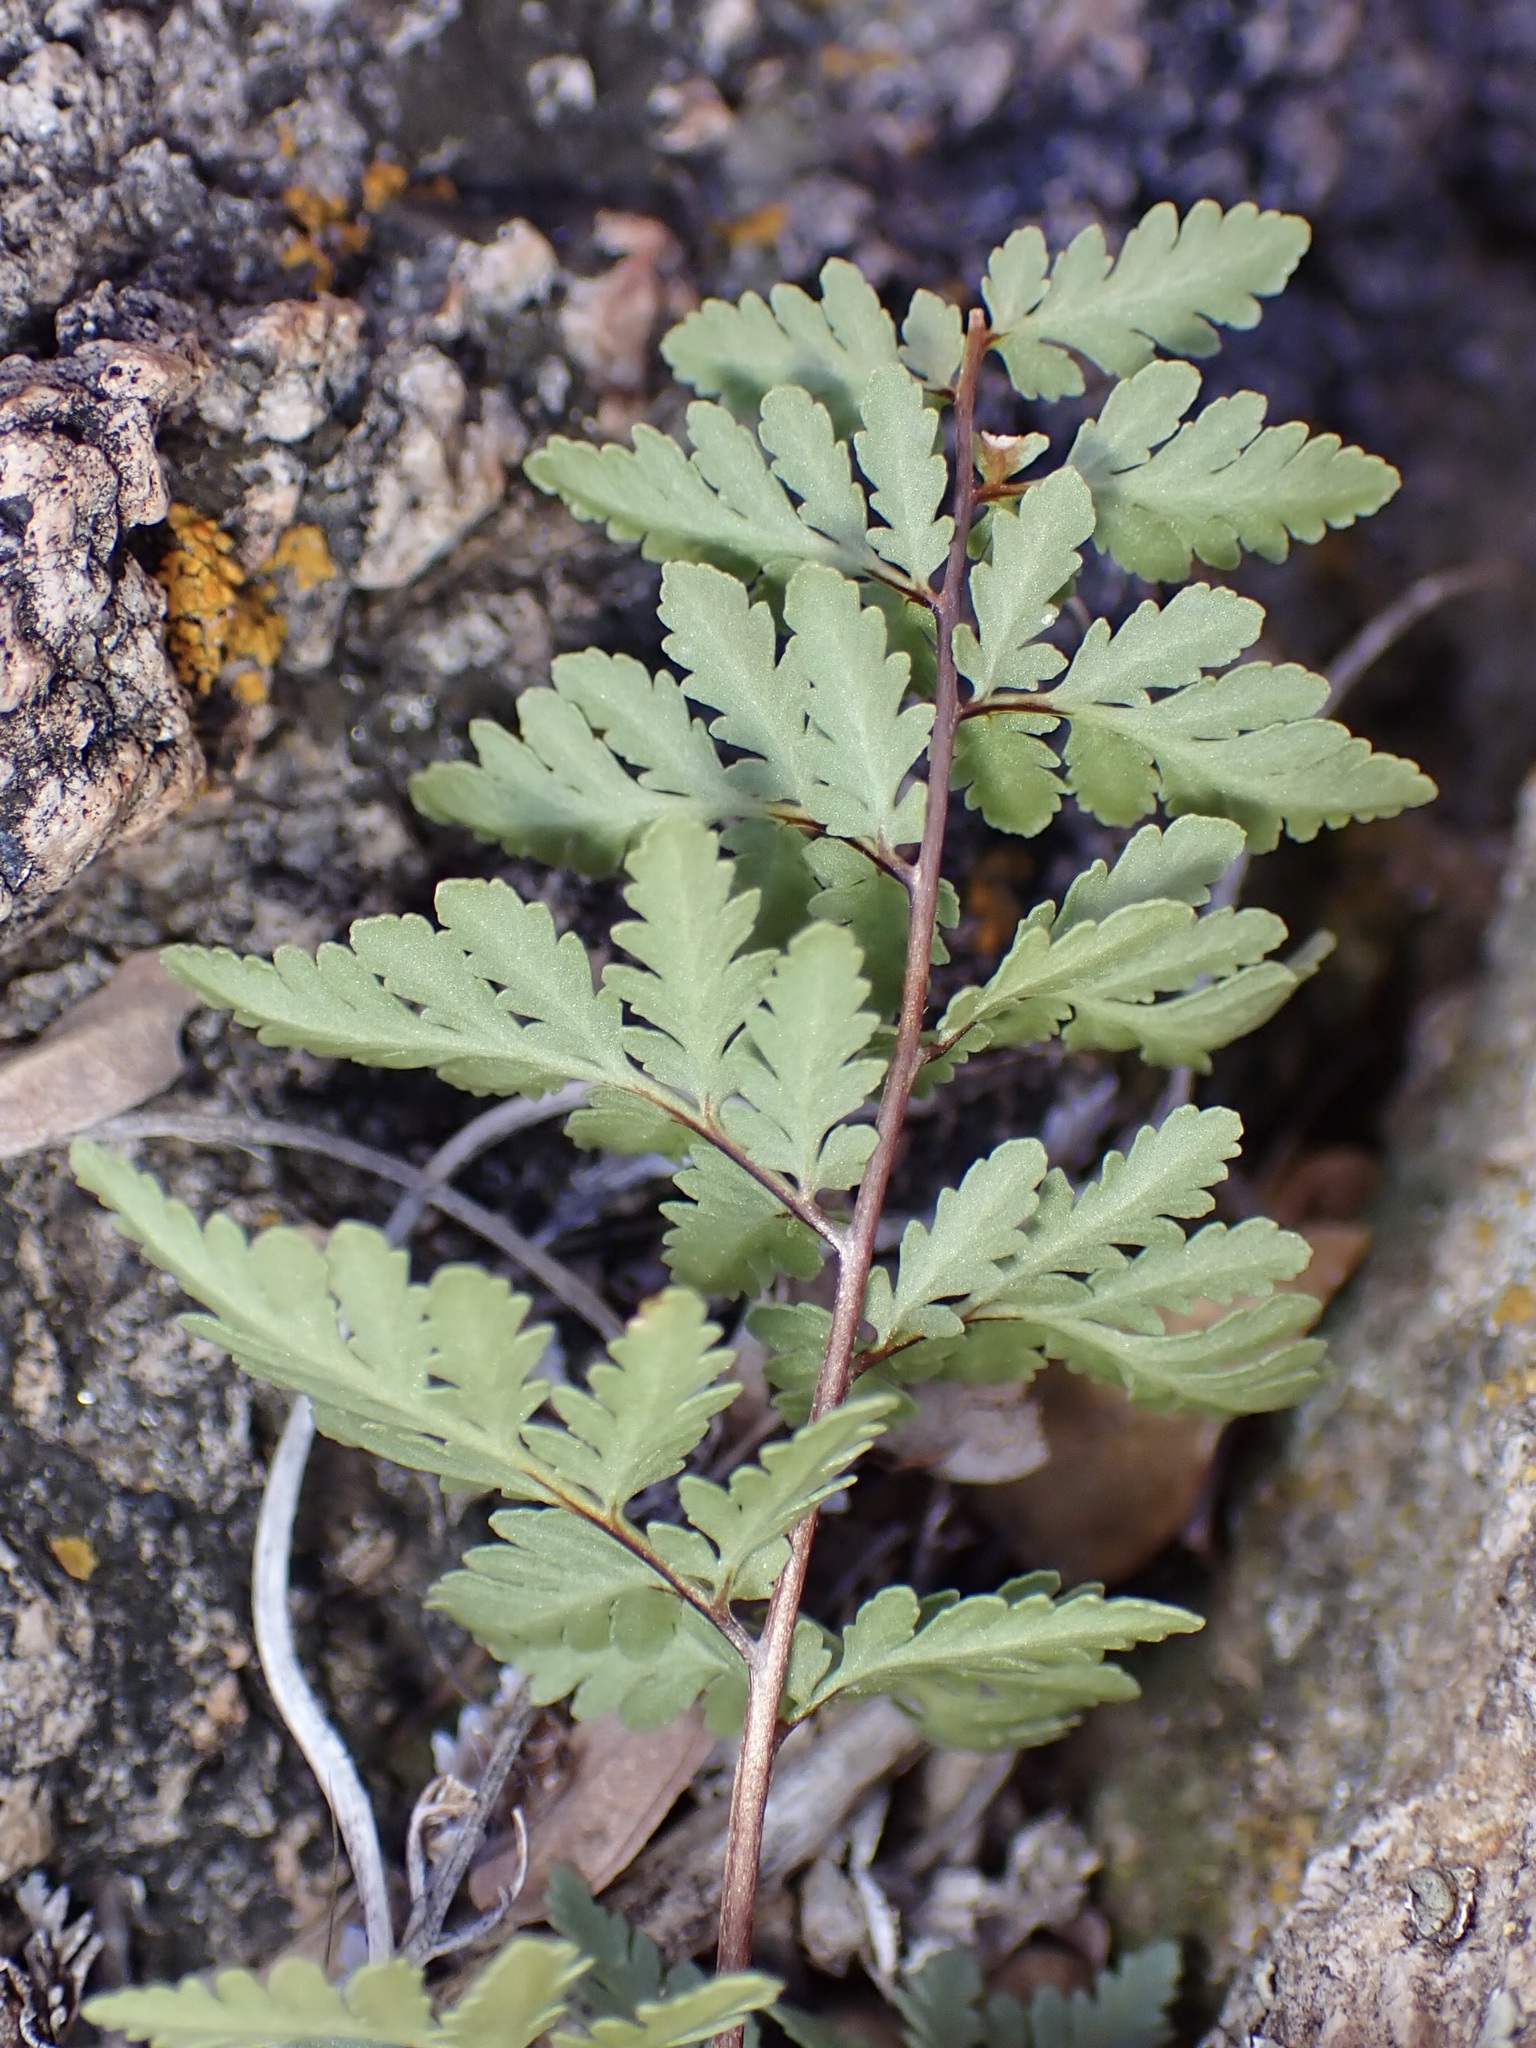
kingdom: Plantae
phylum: Tracheophyta
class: Polypodiopsida
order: Polypodiales
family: Pteridaceae
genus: Myriopteris
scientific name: Myriopteris wrightii
